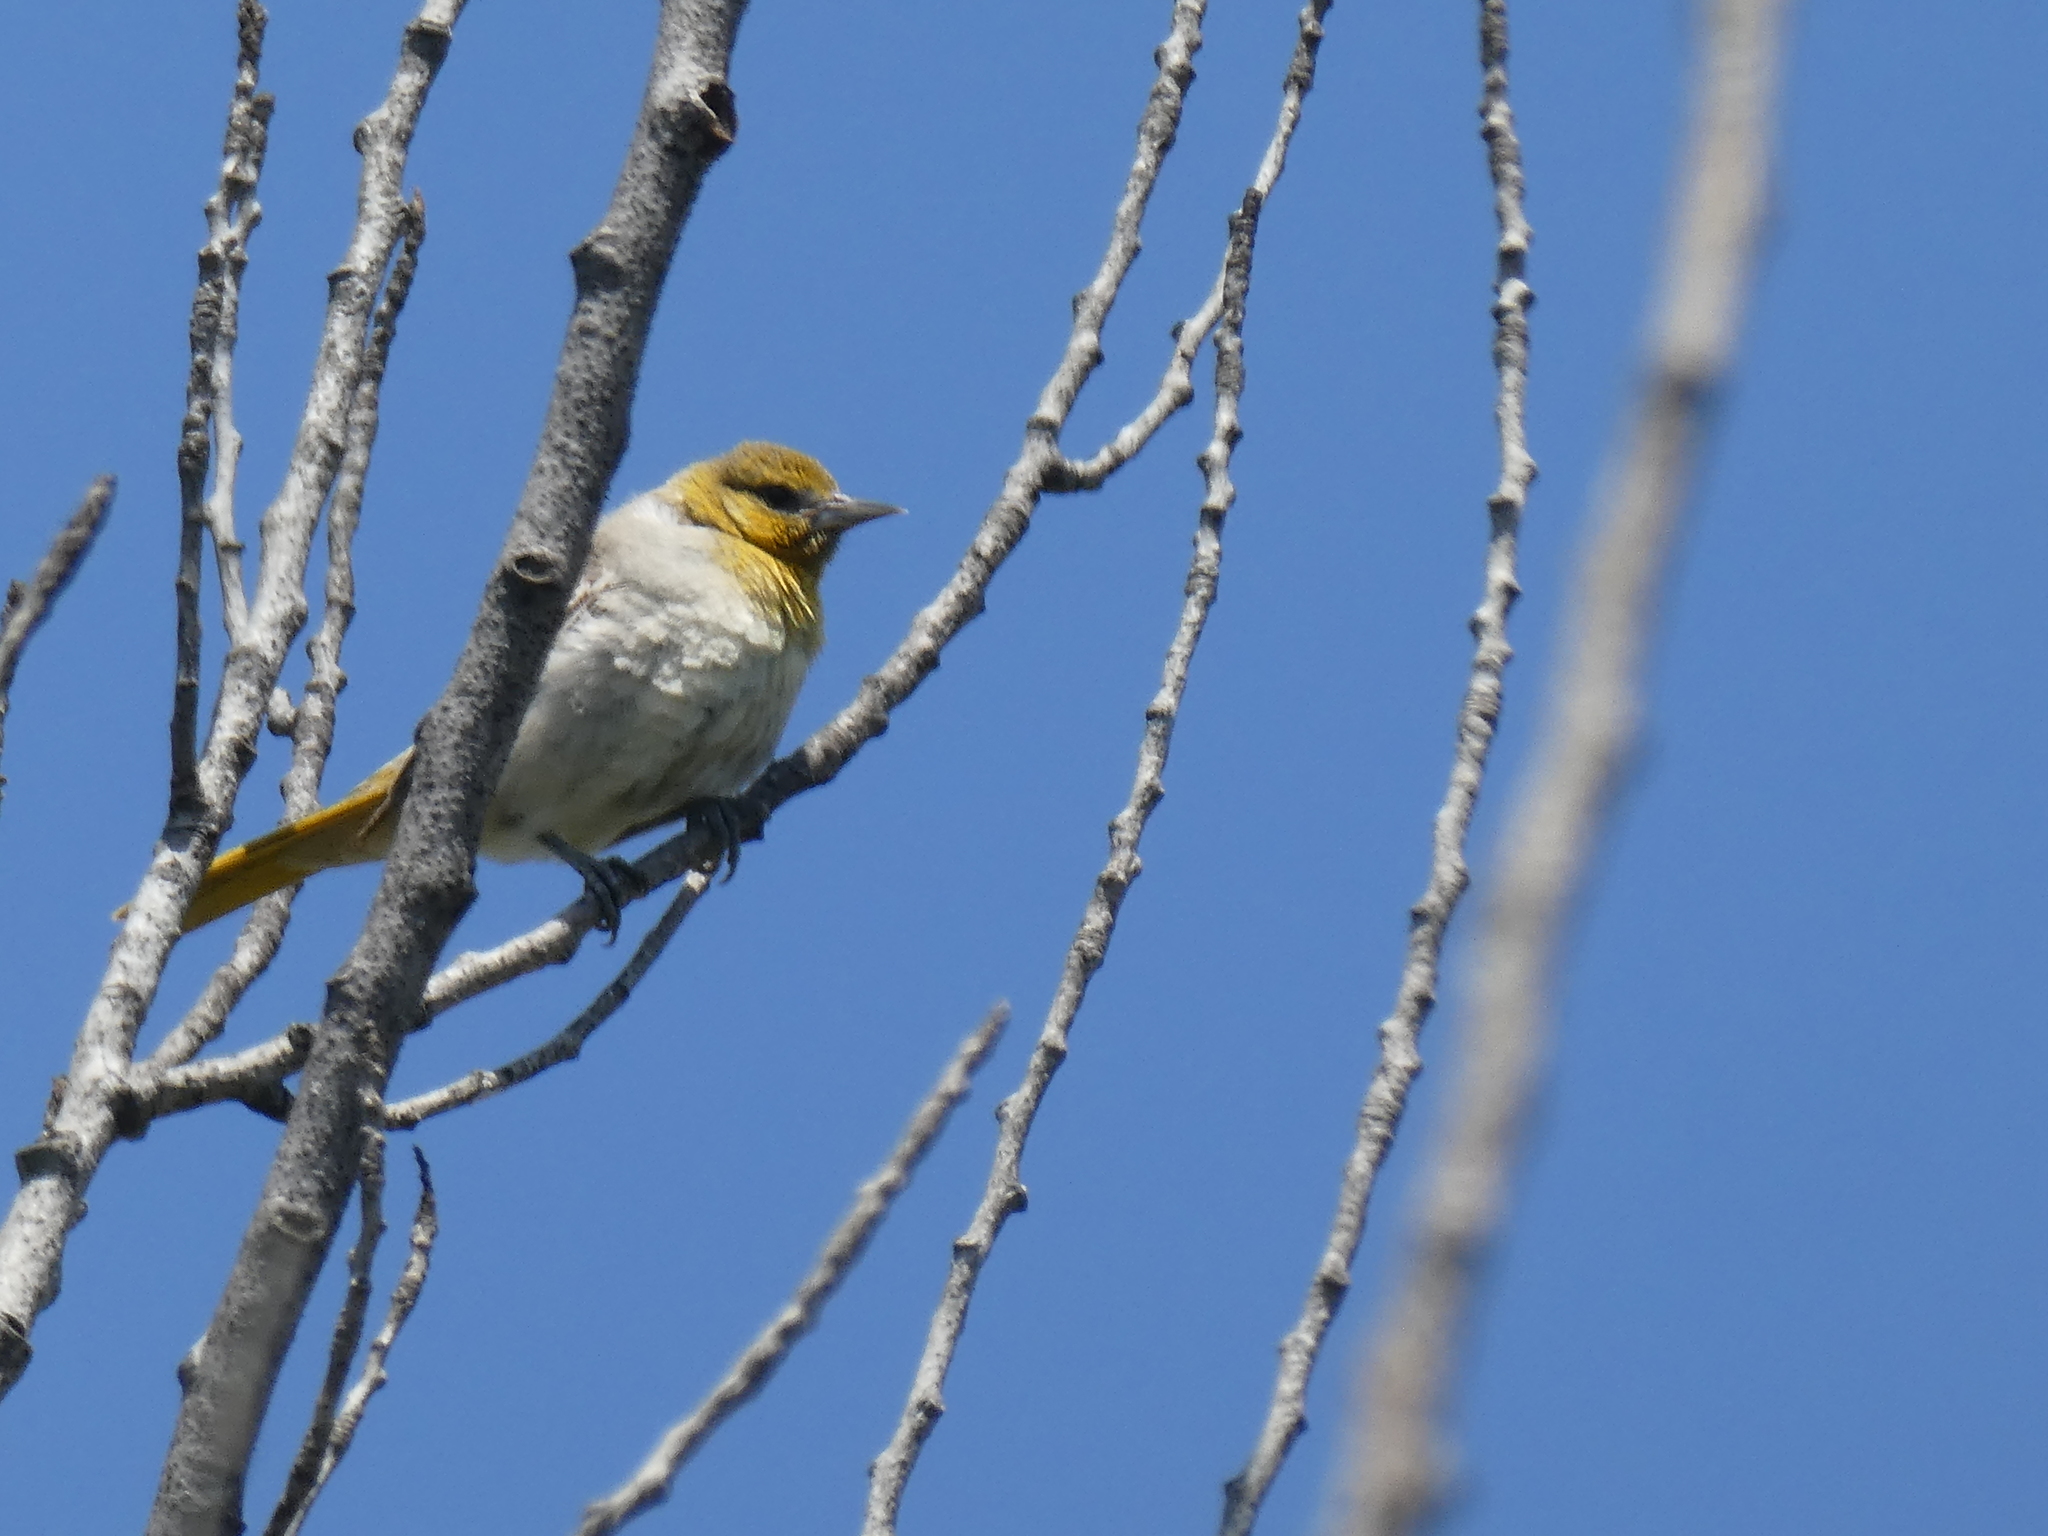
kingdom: Animalia
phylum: Chordata
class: Aves
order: Passeriformes
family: Icteridae
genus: Icterus
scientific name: Icterus bullockii
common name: Bullock's oriole
